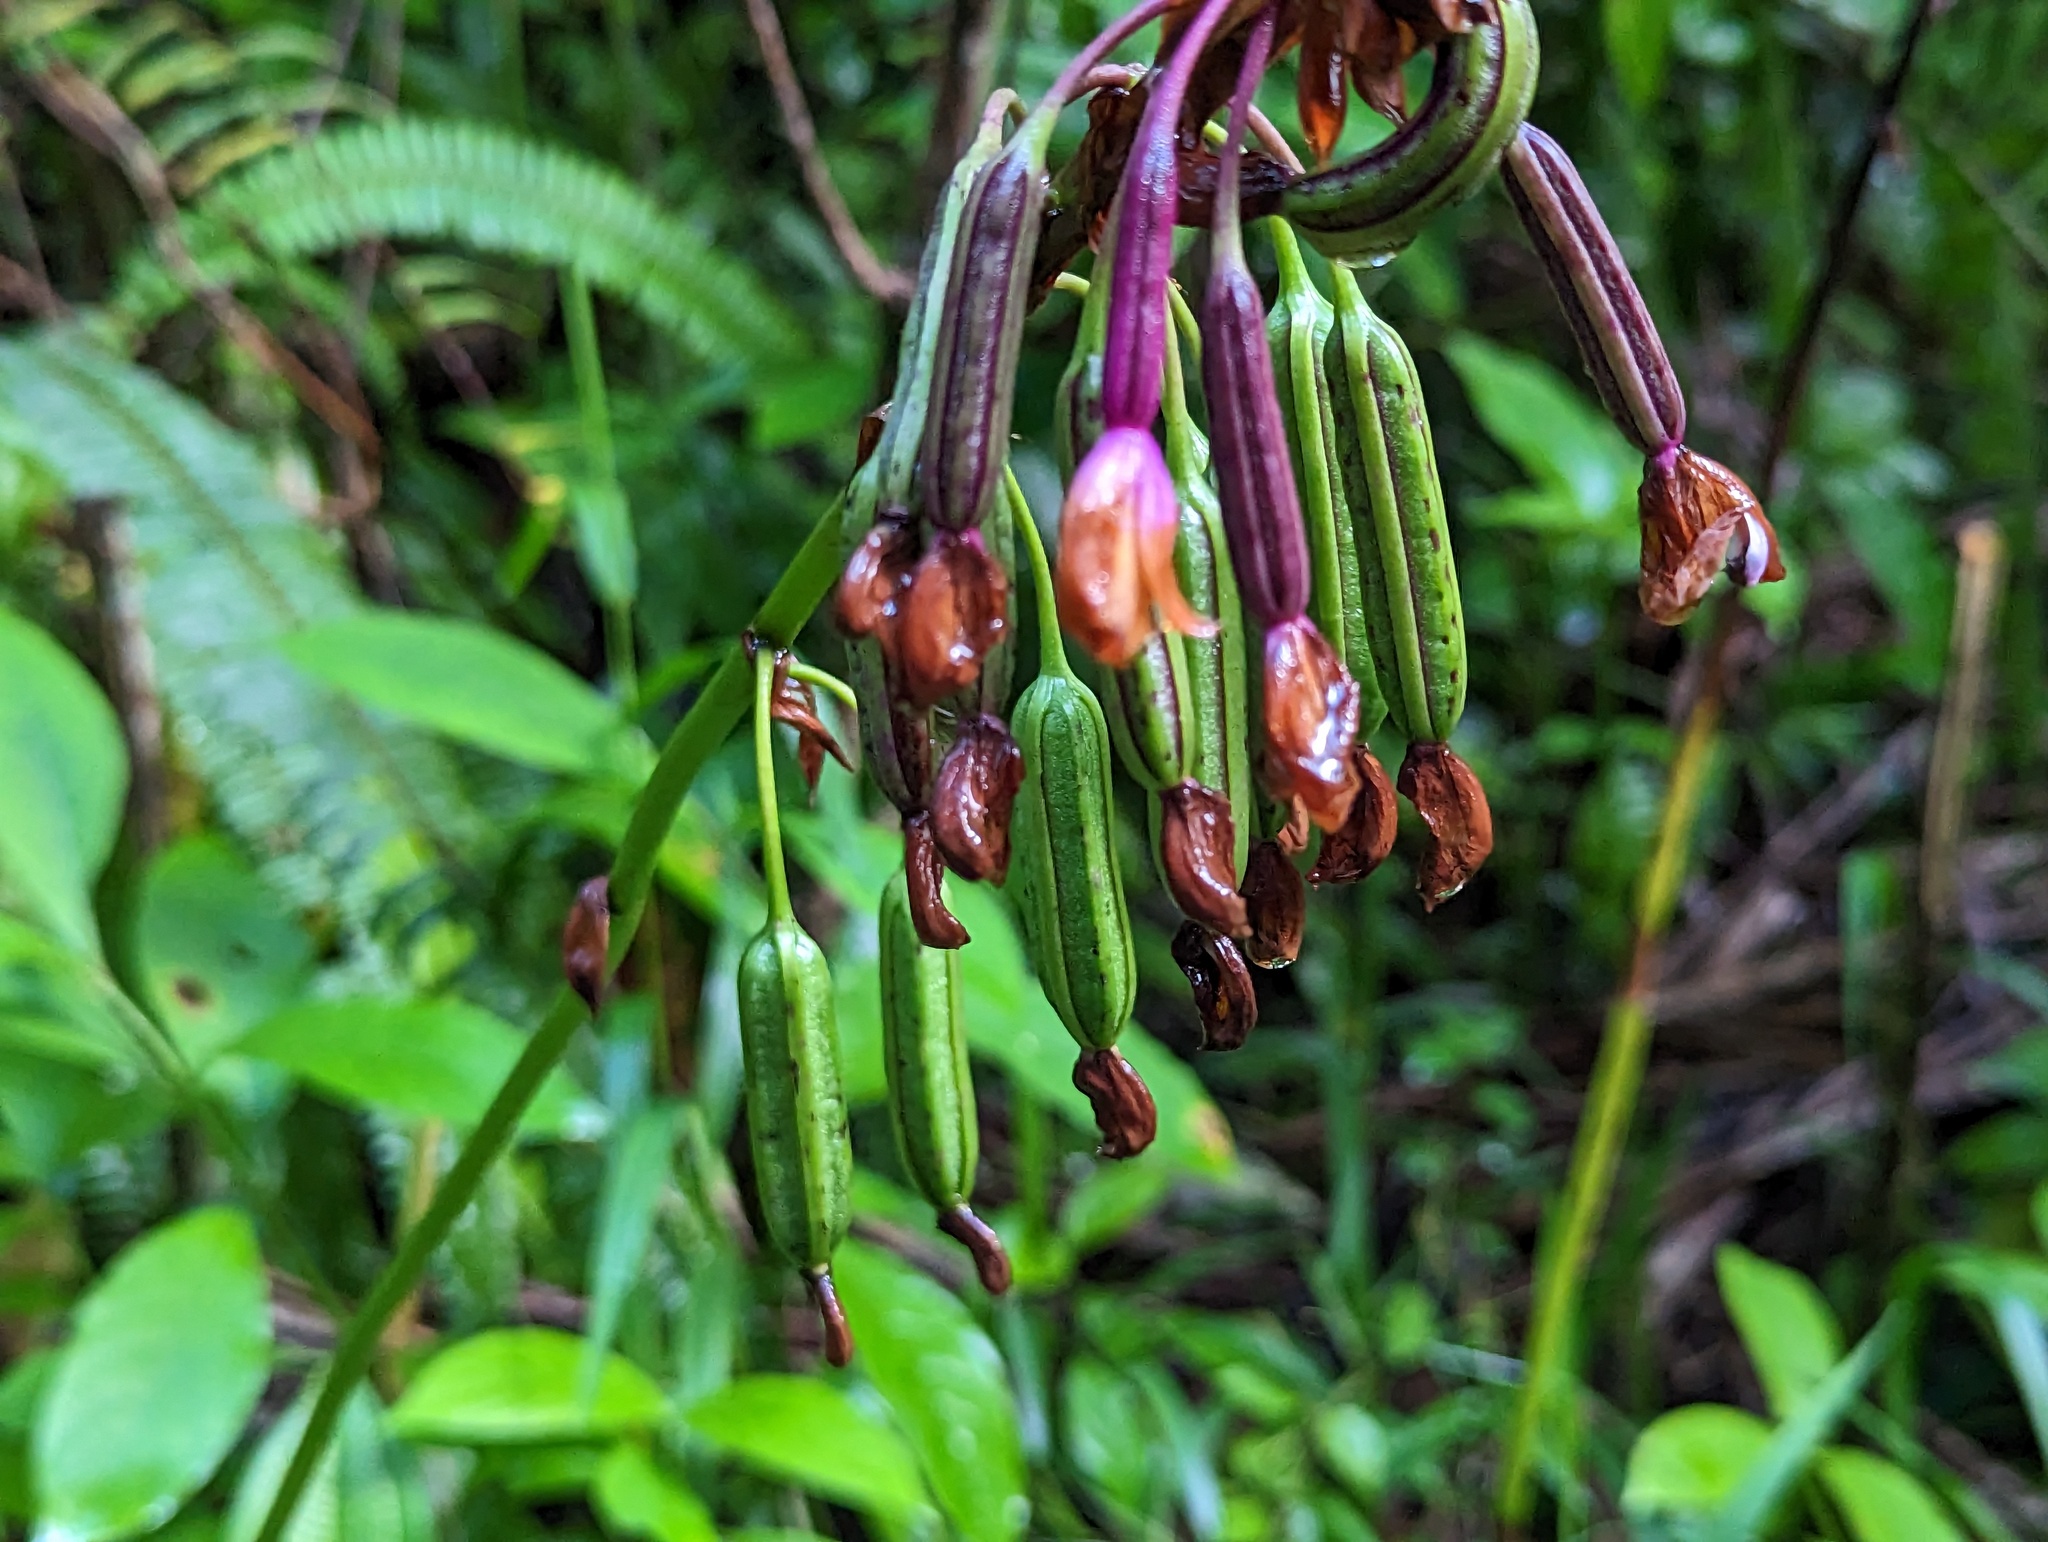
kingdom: Plantae
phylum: Tracheophyta
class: Liliopsida
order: Asparagales
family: Orchidaceae
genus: Spathoglottis
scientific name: Spathoglottis plicata
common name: Philippine ground orchid
